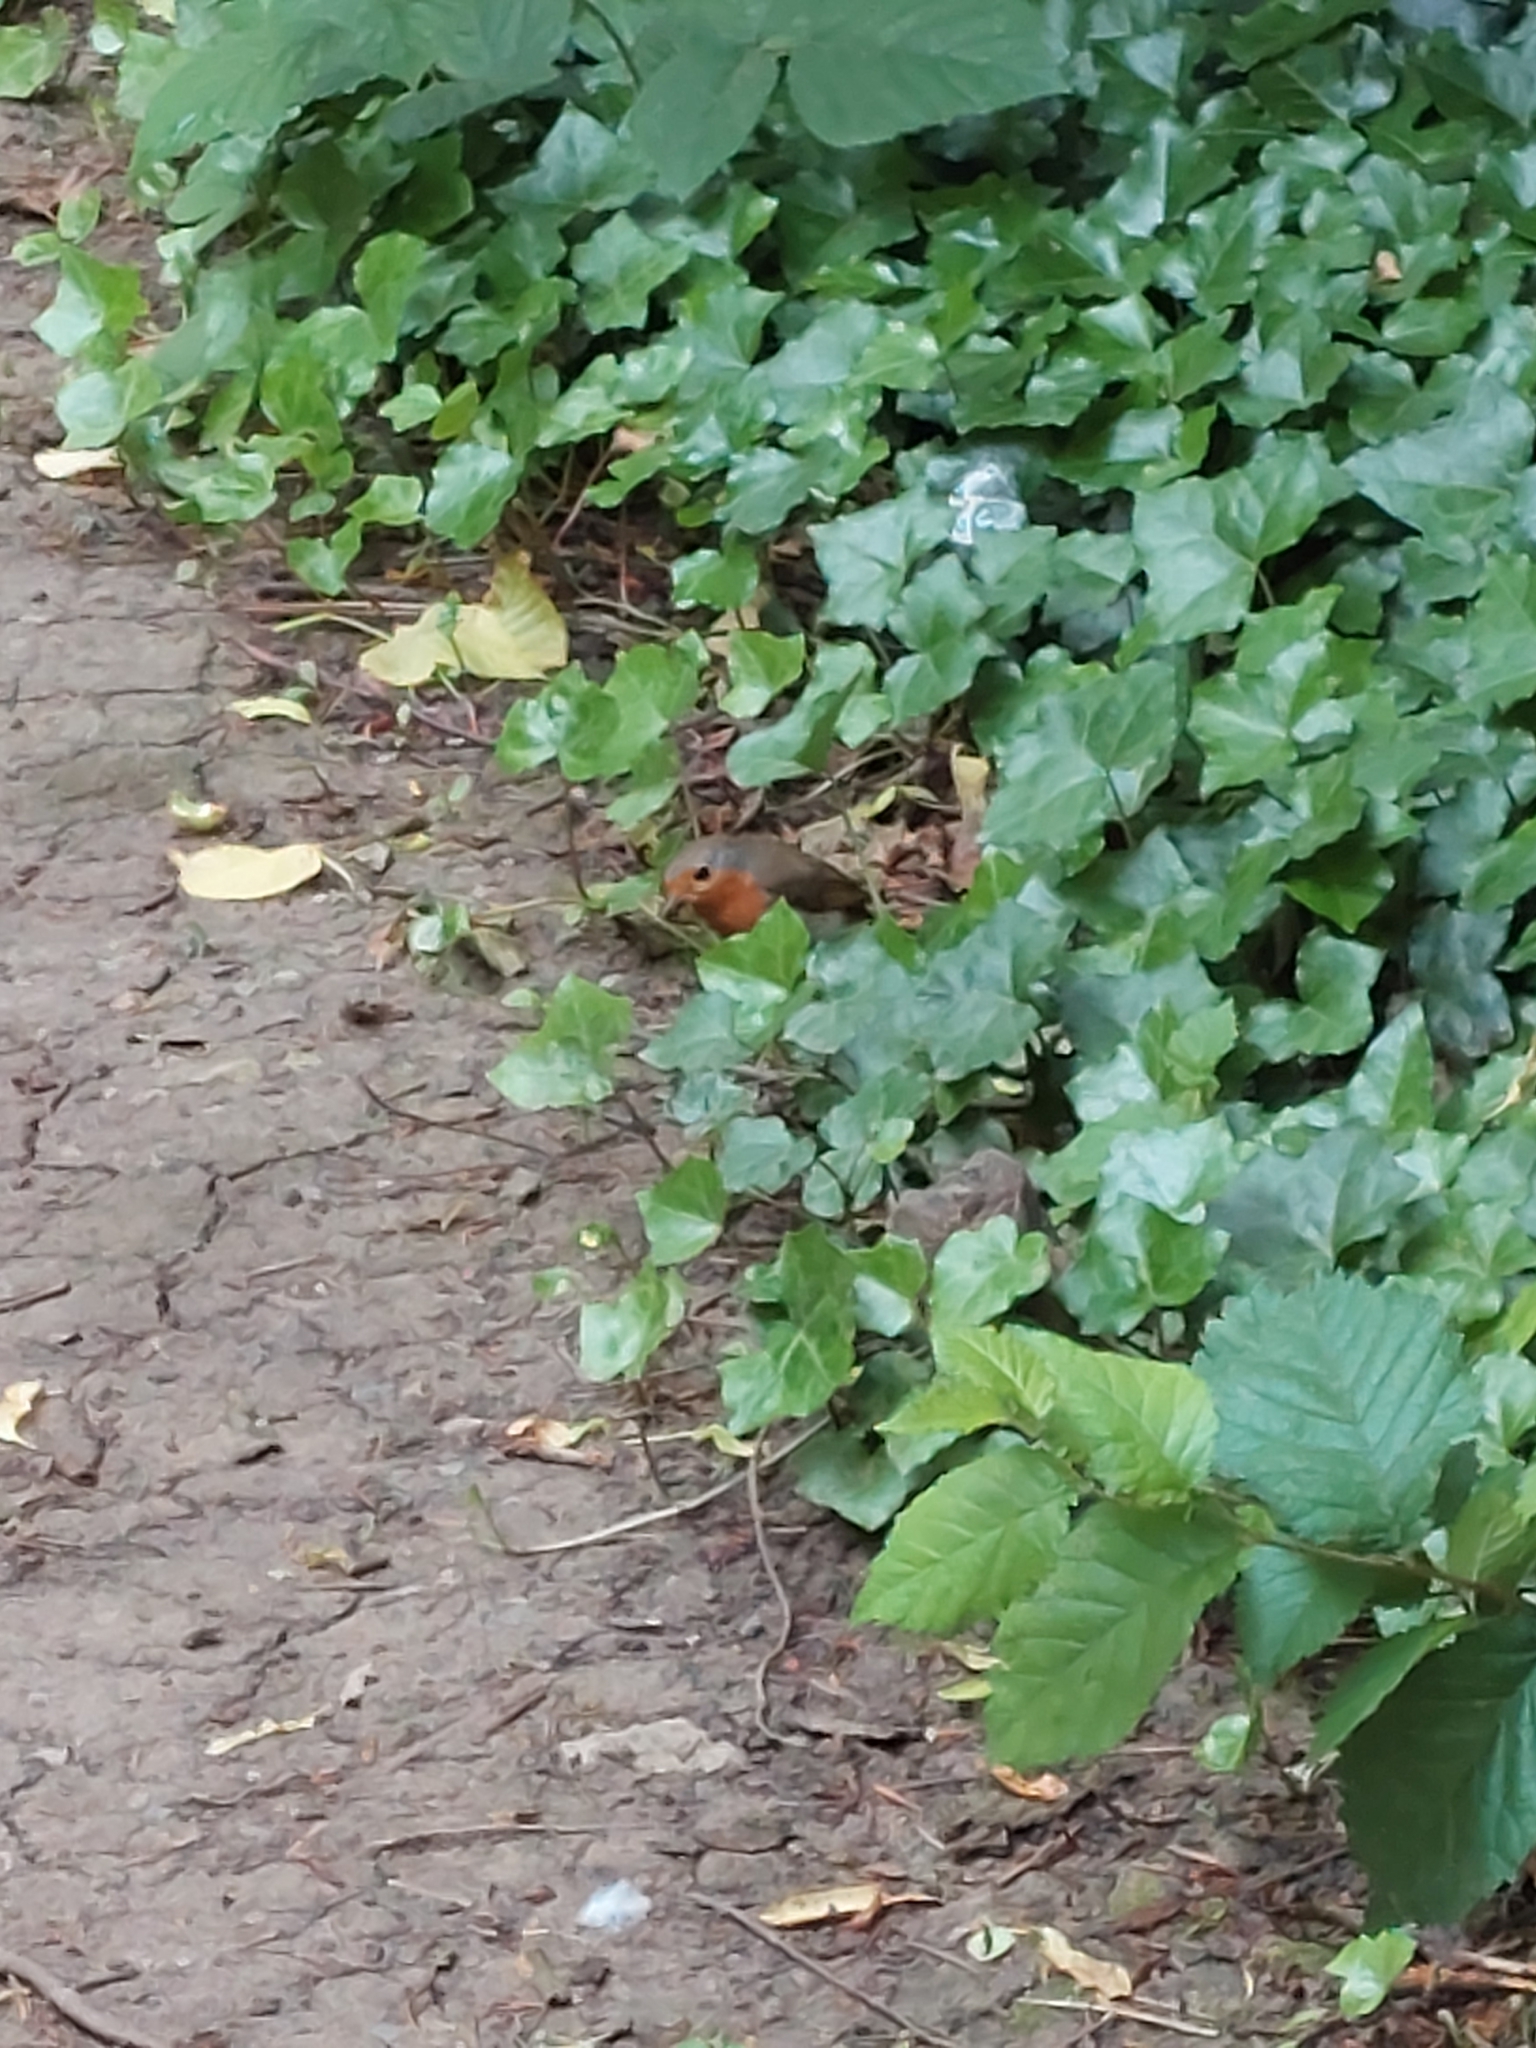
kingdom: Animalia
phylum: Chordata
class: Aves
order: Passeriformes
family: Muscicapidae
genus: Erithacus
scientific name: Erithacus rubecula
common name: European robin
